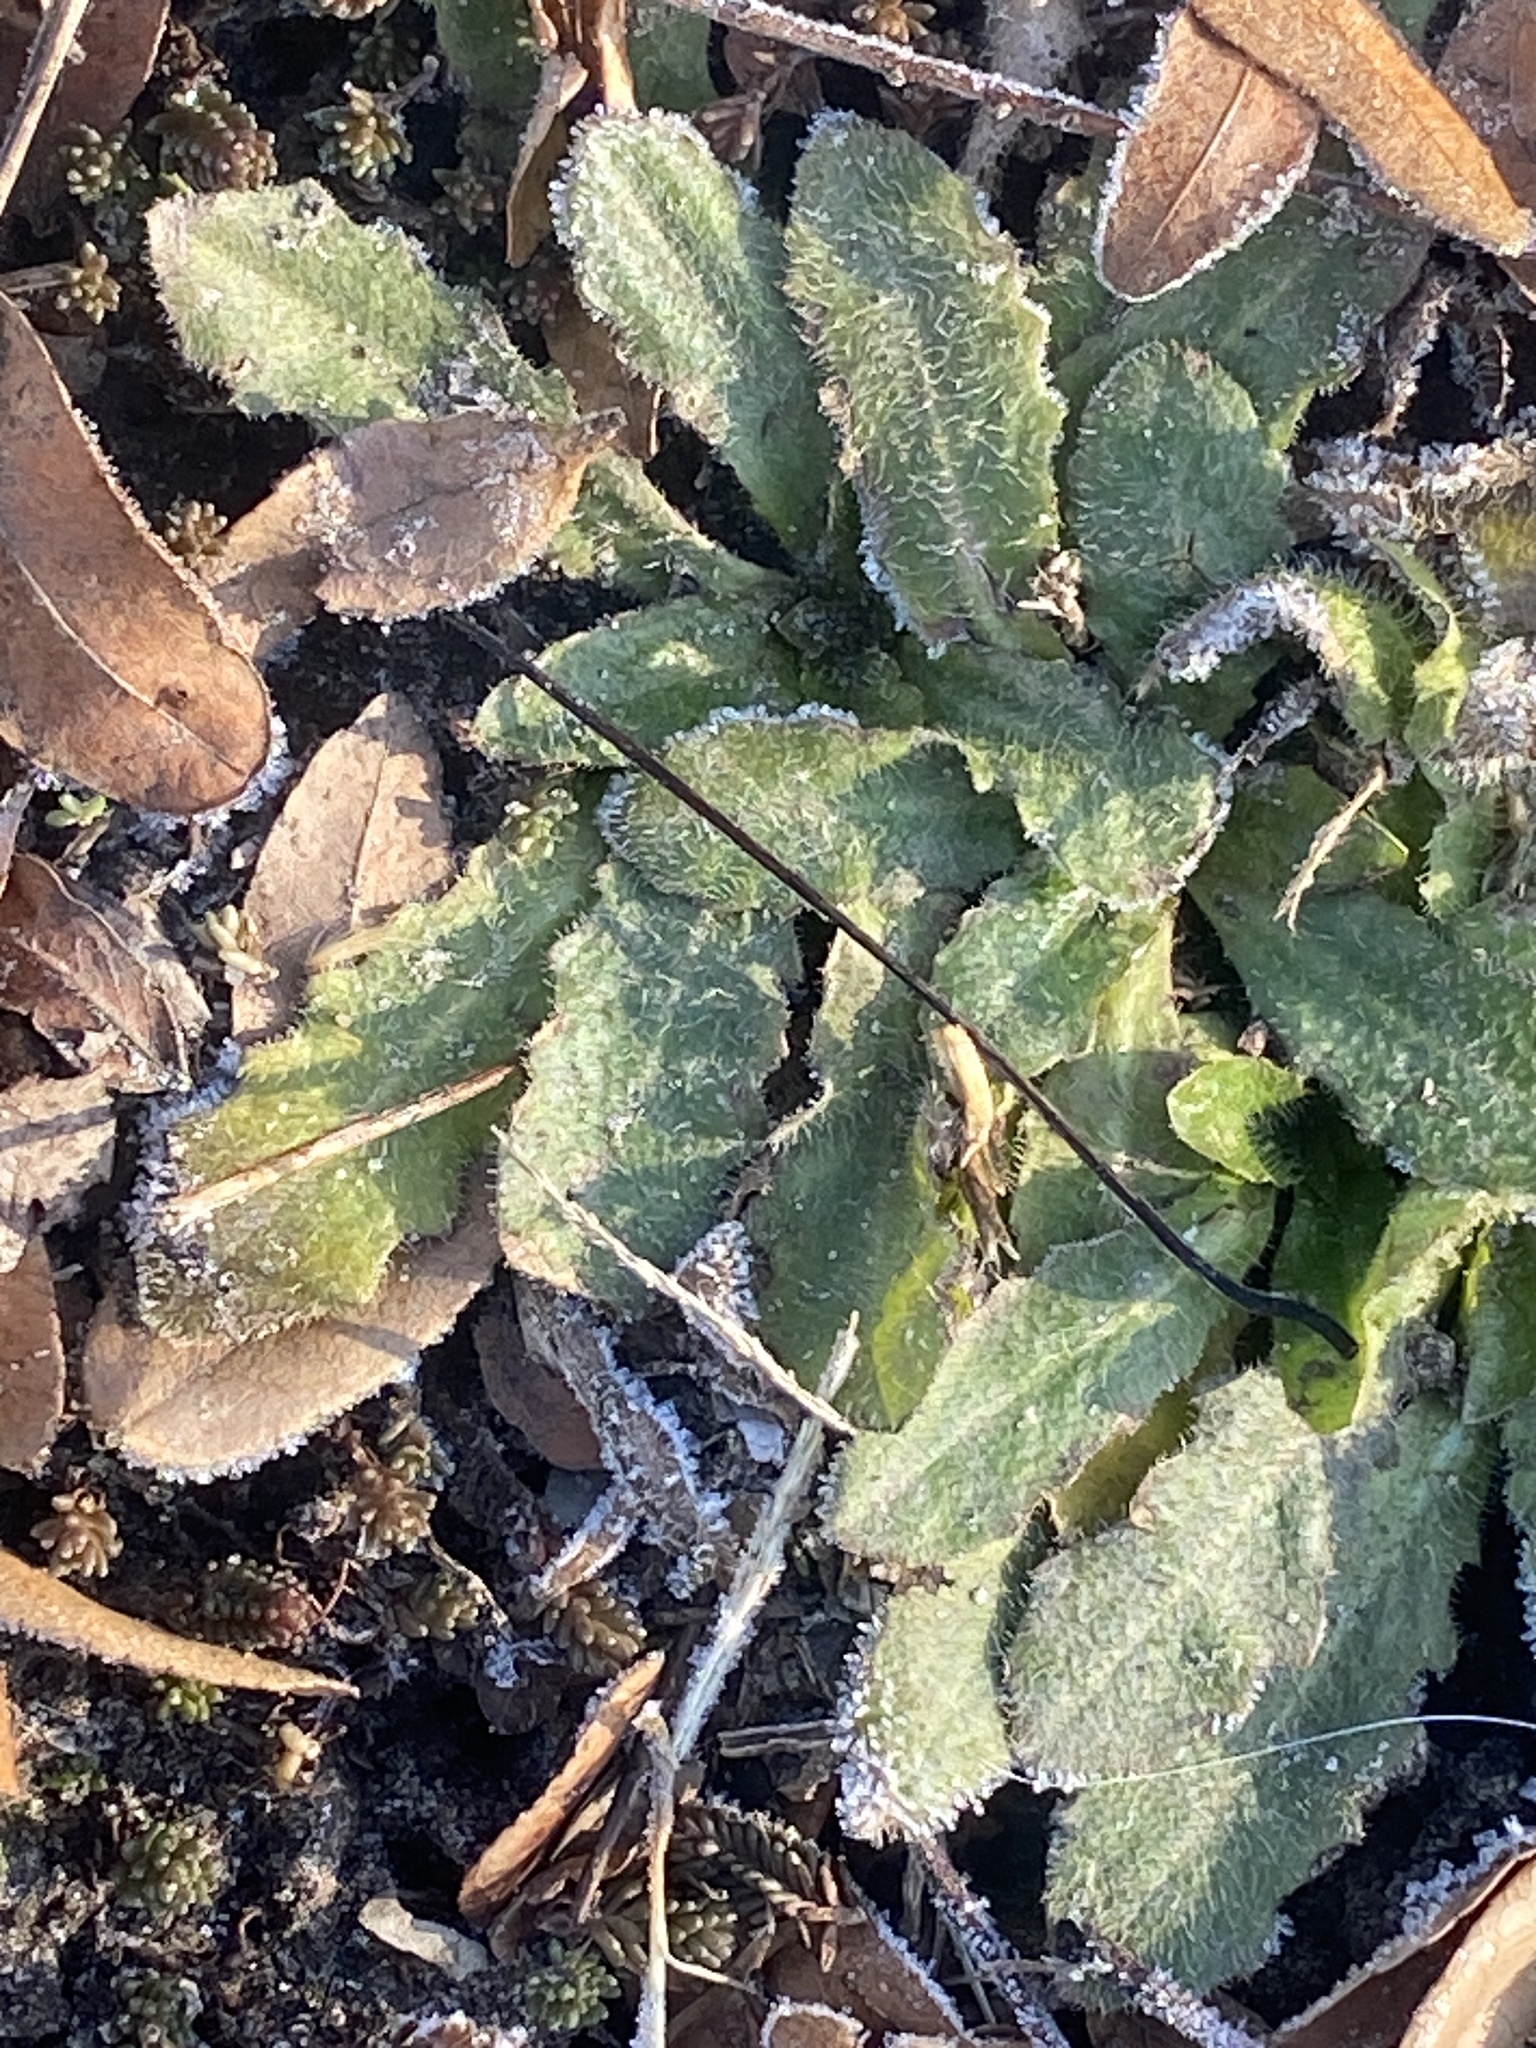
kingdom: Plantae
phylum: Tracheophyta
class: Magnoliopsida
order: Asterales
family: Asteraceae
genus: Hypochaeris
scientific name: Hypochaeris radicata
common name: Flatweed
